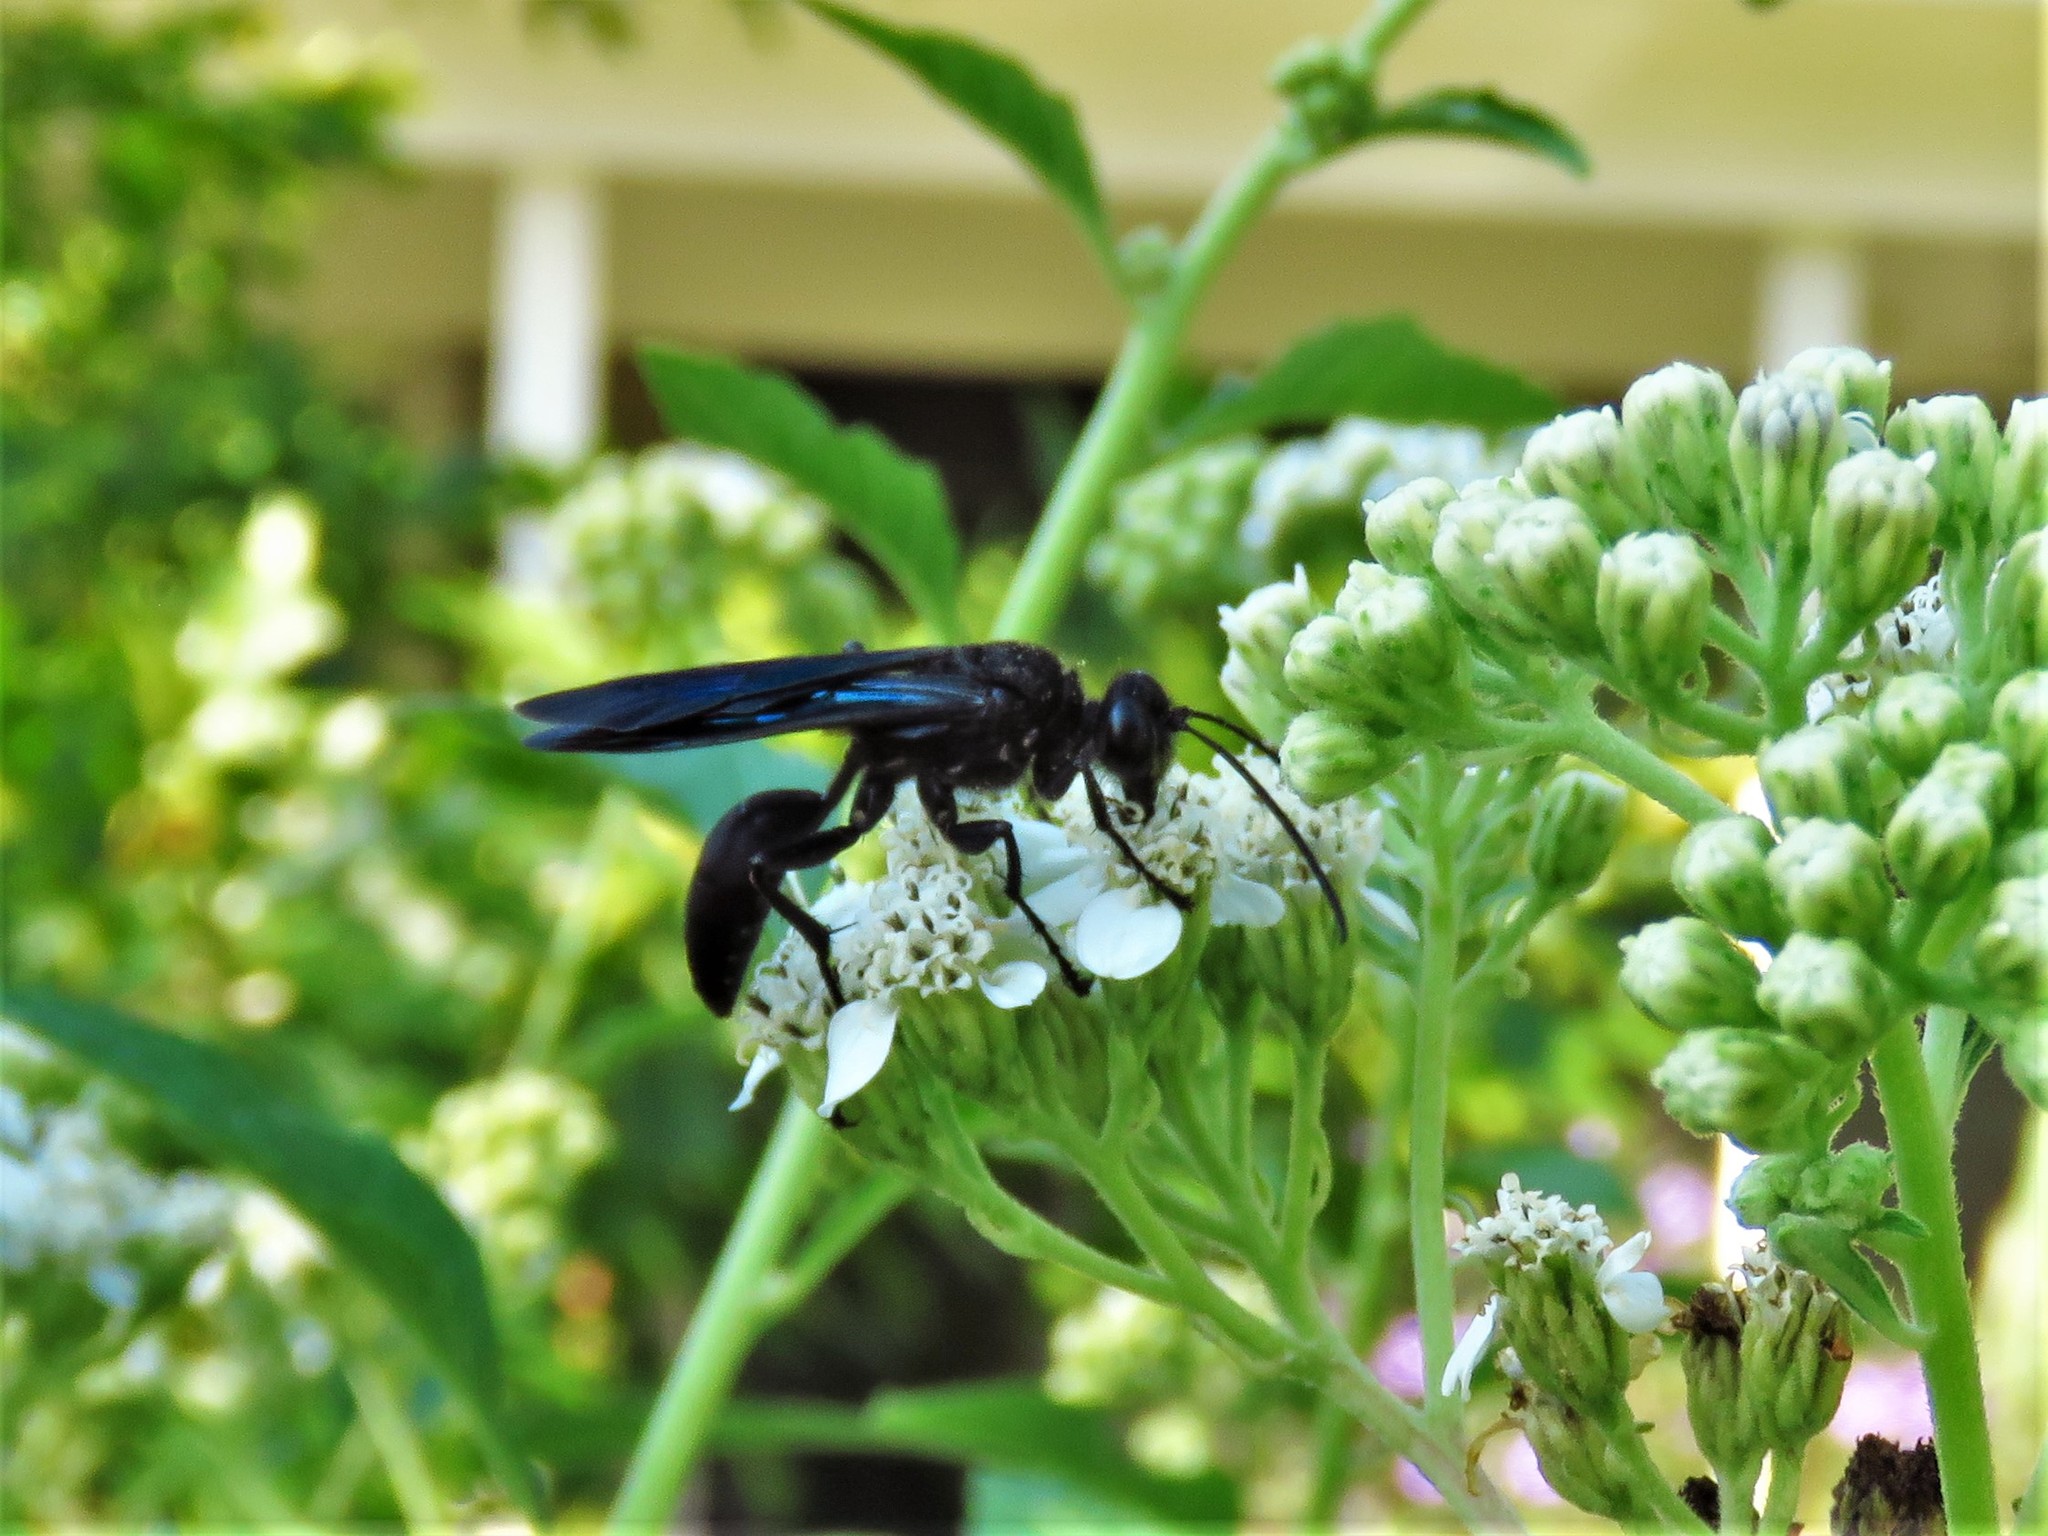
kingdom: Animalia
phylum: Arthropoda
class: Insecta
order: Hymenoptera
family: Sphecidae
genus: Sphex
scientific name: Sphex pensylvanicus
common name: Great black digger wasp
